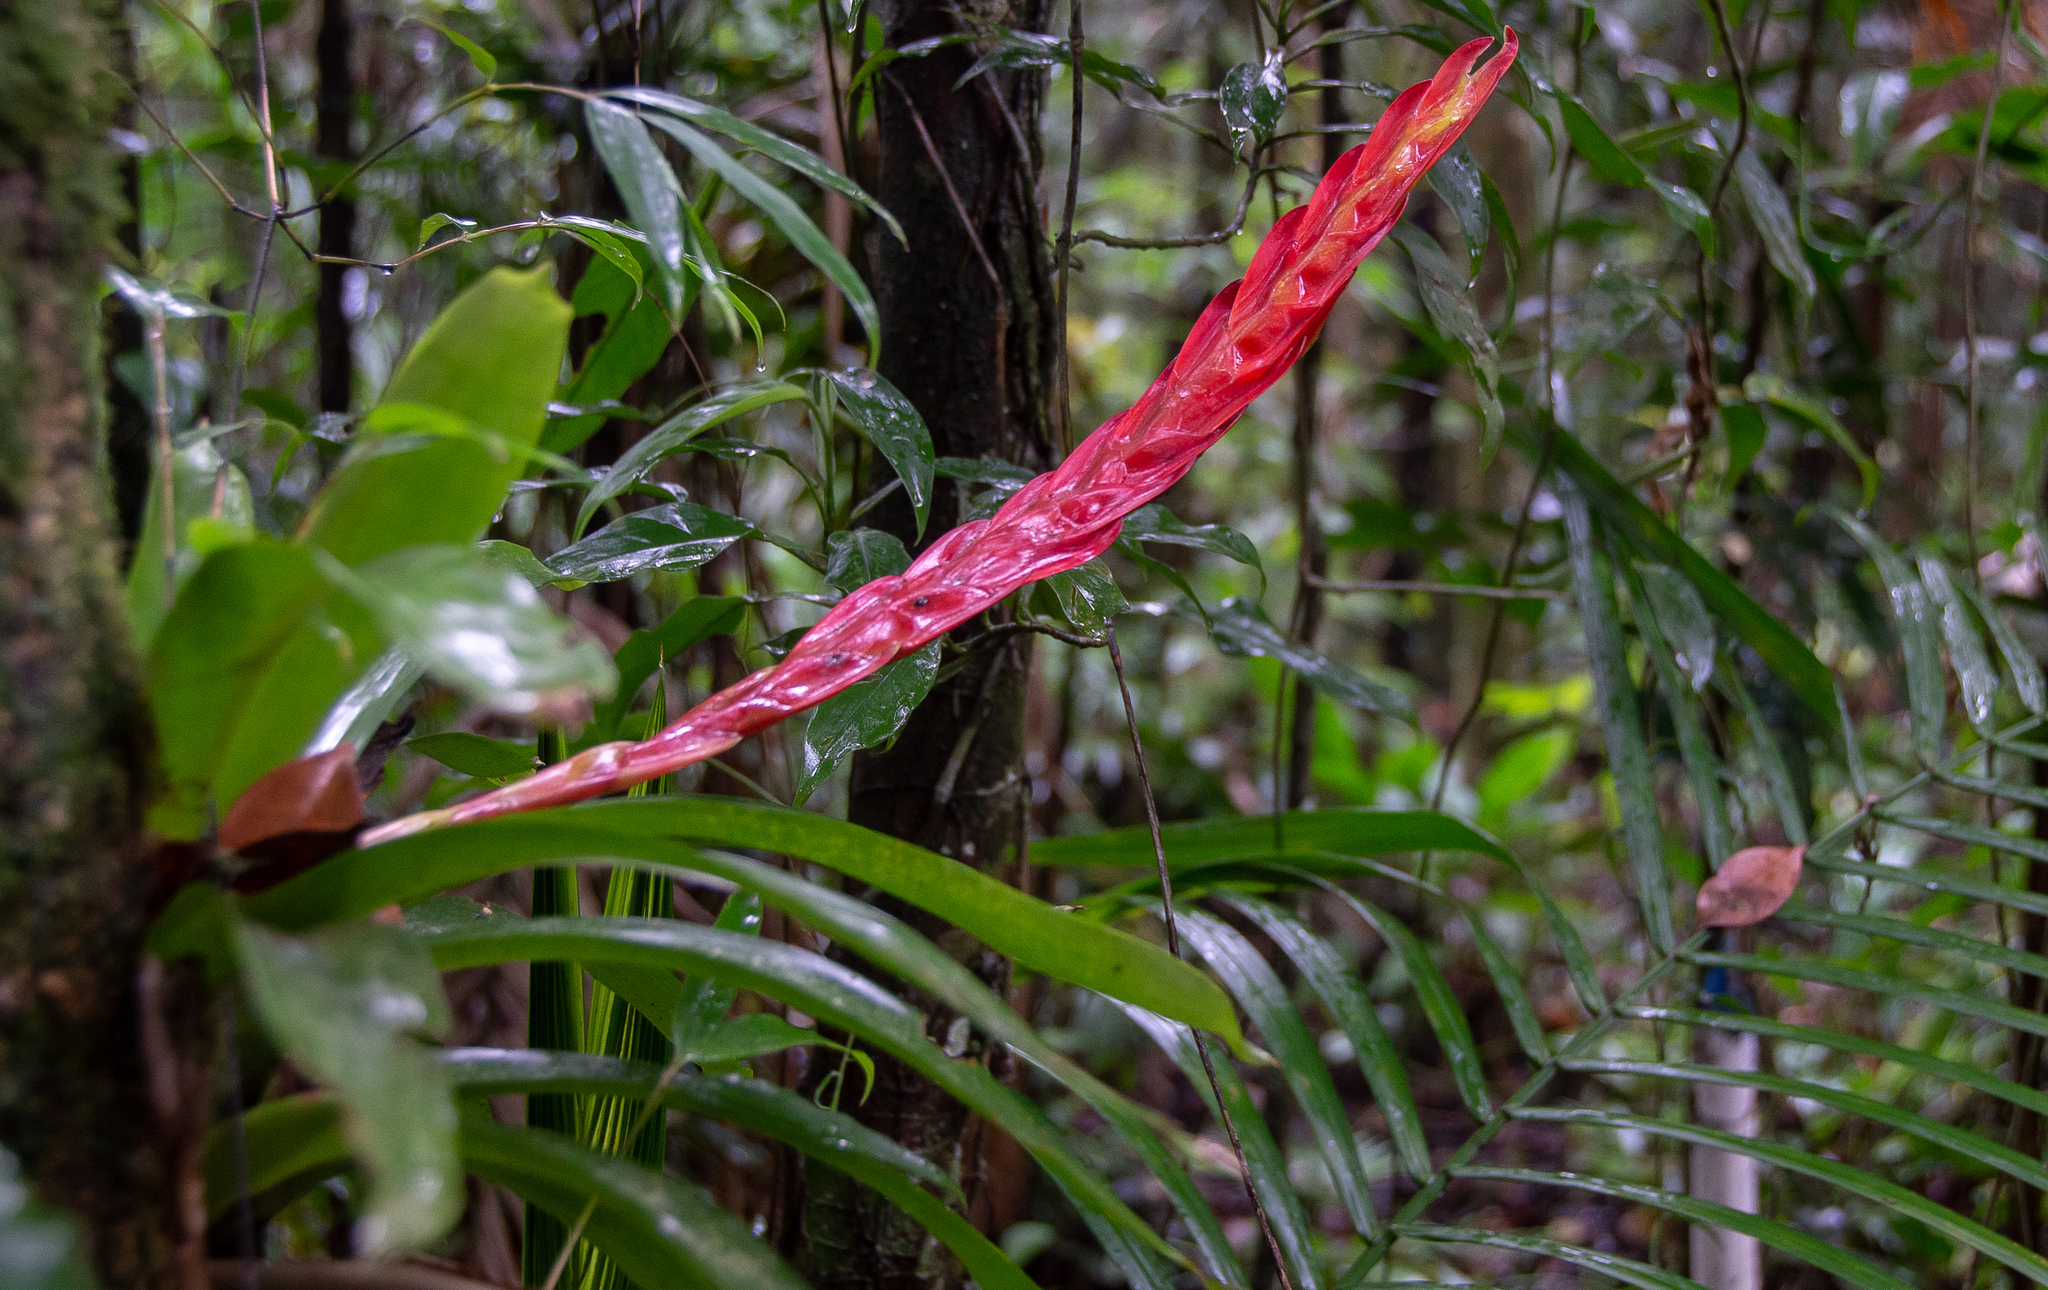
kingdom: Plantae
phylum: Tracheophyta
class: Liliopsida
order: Poales
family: Bromeliaceae
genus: Vriesea
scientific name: Vriesea incurvata
